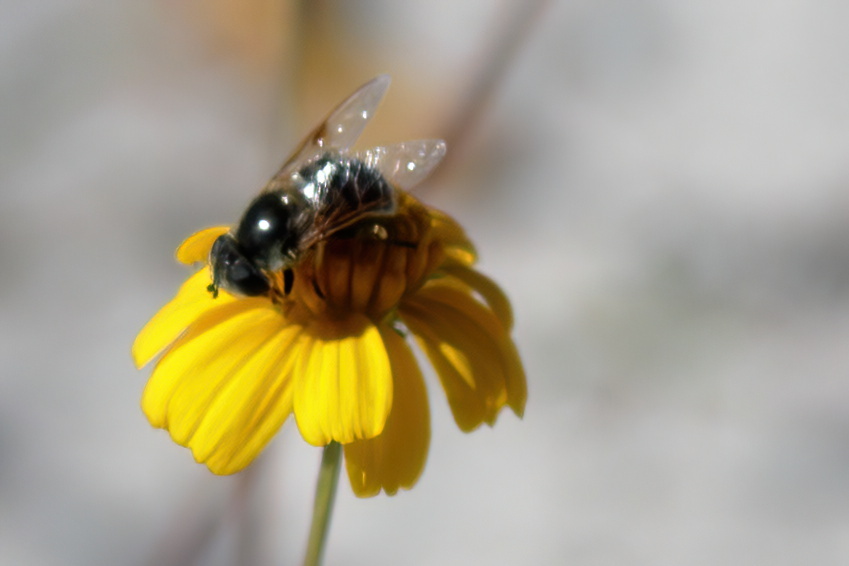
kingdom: Animalia
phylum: Arthropoda
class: Insecta
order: Diptera
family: Syrphidae
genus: Eristalis
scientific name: Eristalis stipator
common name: Yellow-shouldered drone fly
